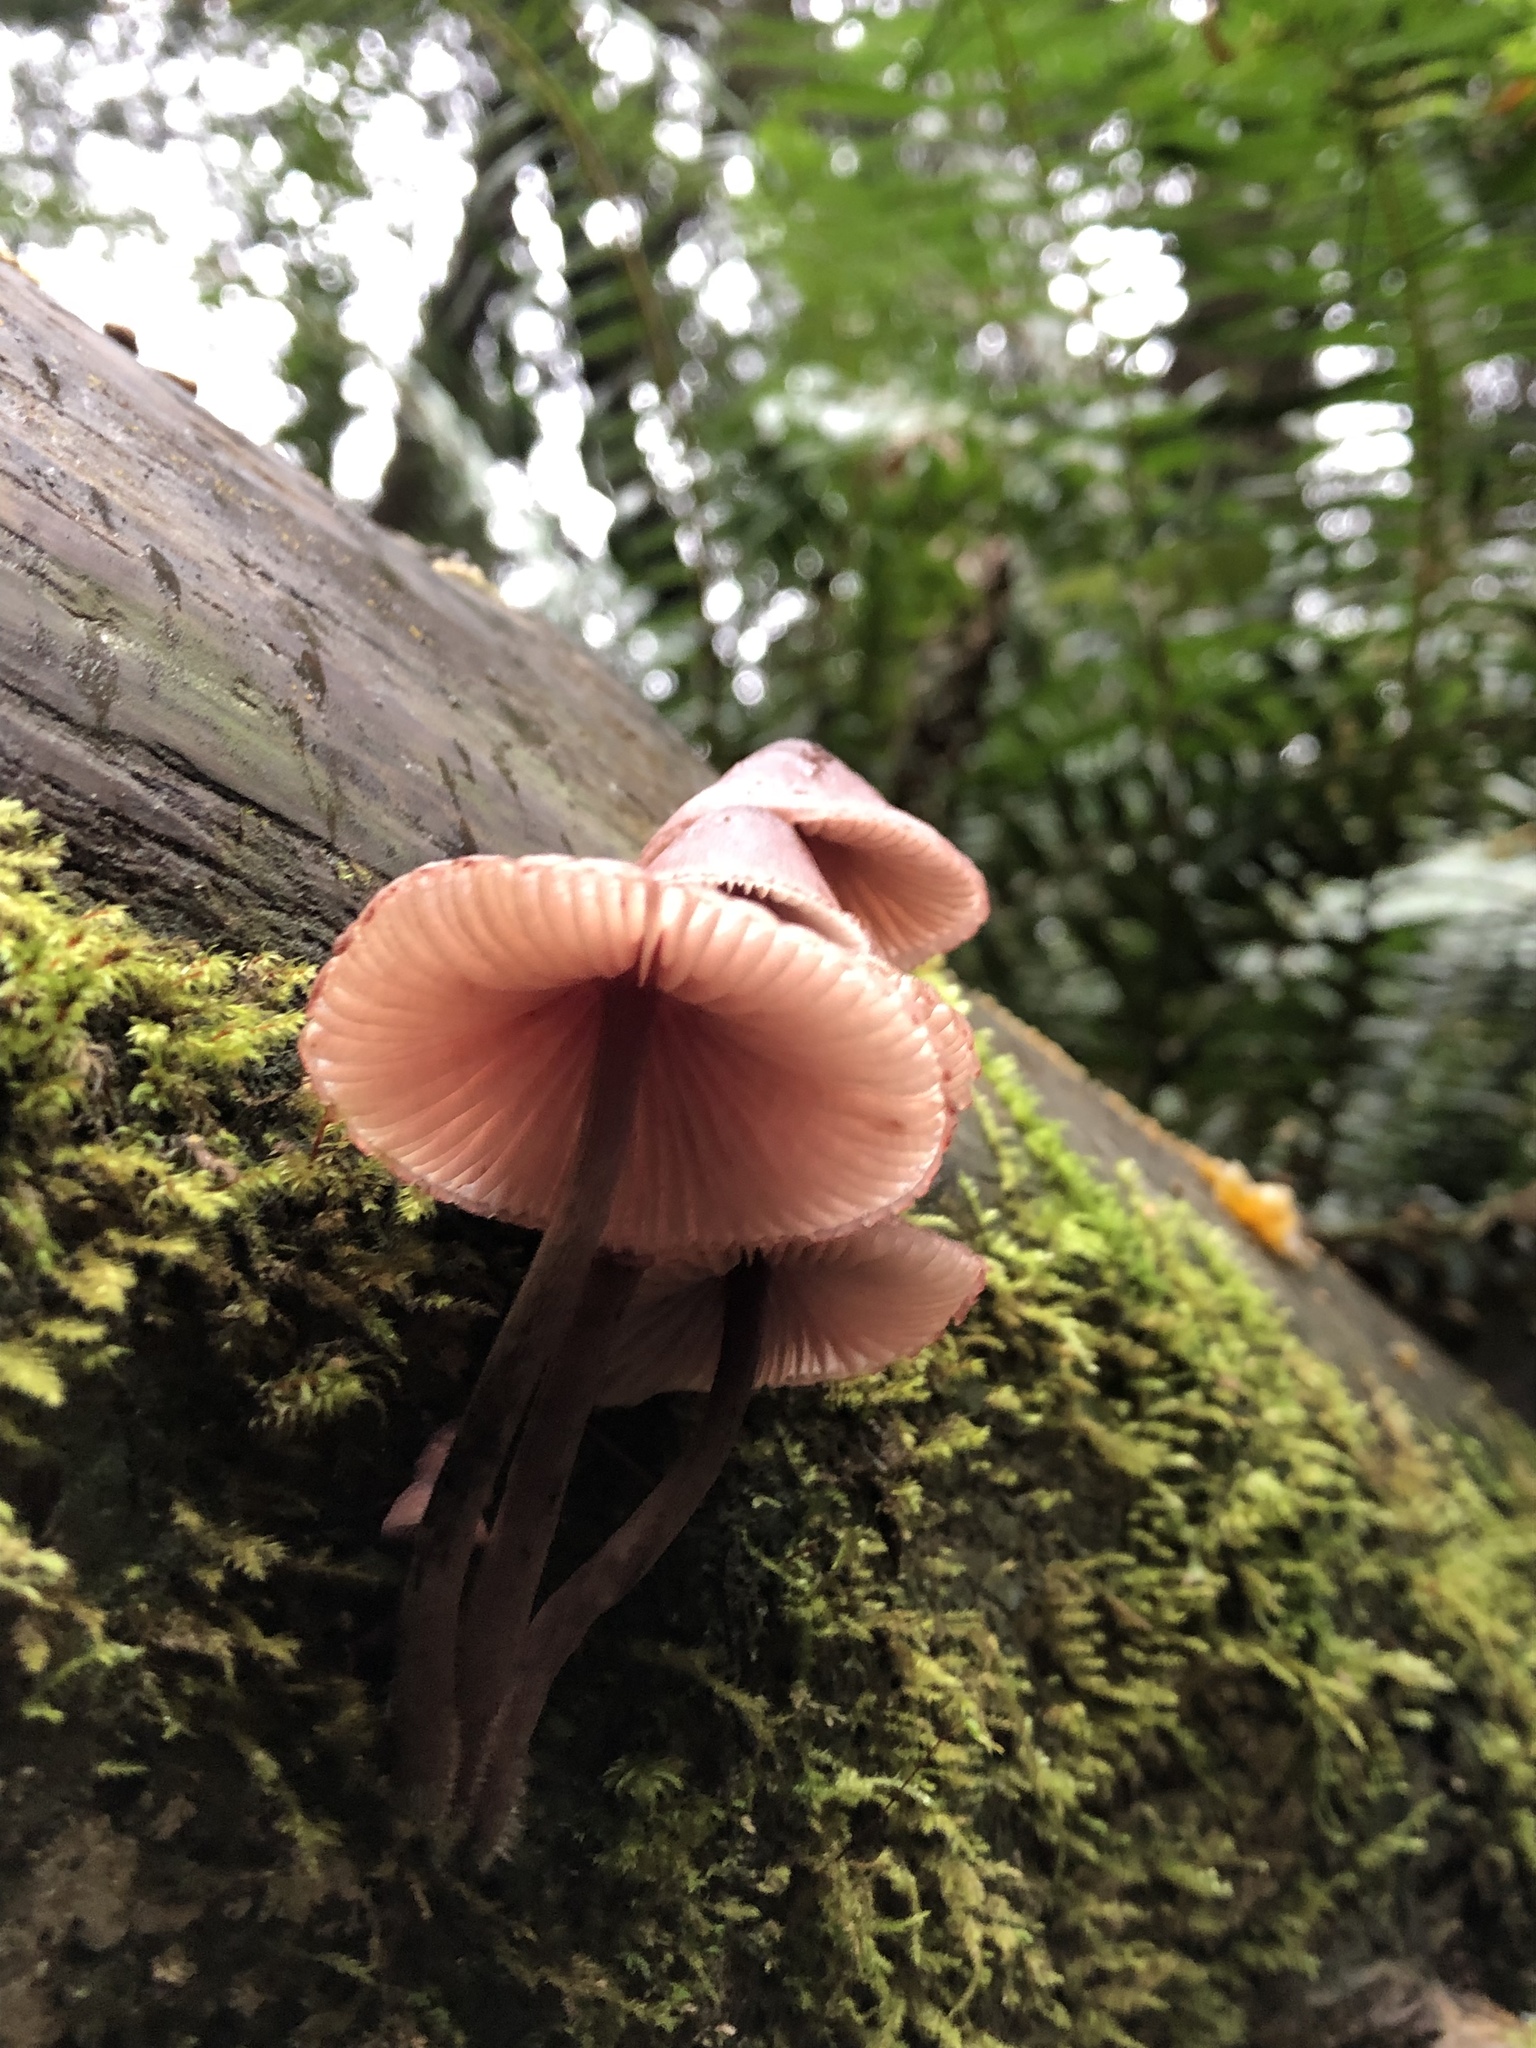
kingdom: Fungi
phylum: Basidiomycota
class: Agaricomycetes
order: Agaricales
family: Mycenaceae
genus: Mycena
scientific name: Mycena haematopus
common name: Burgundydrop bonnet
